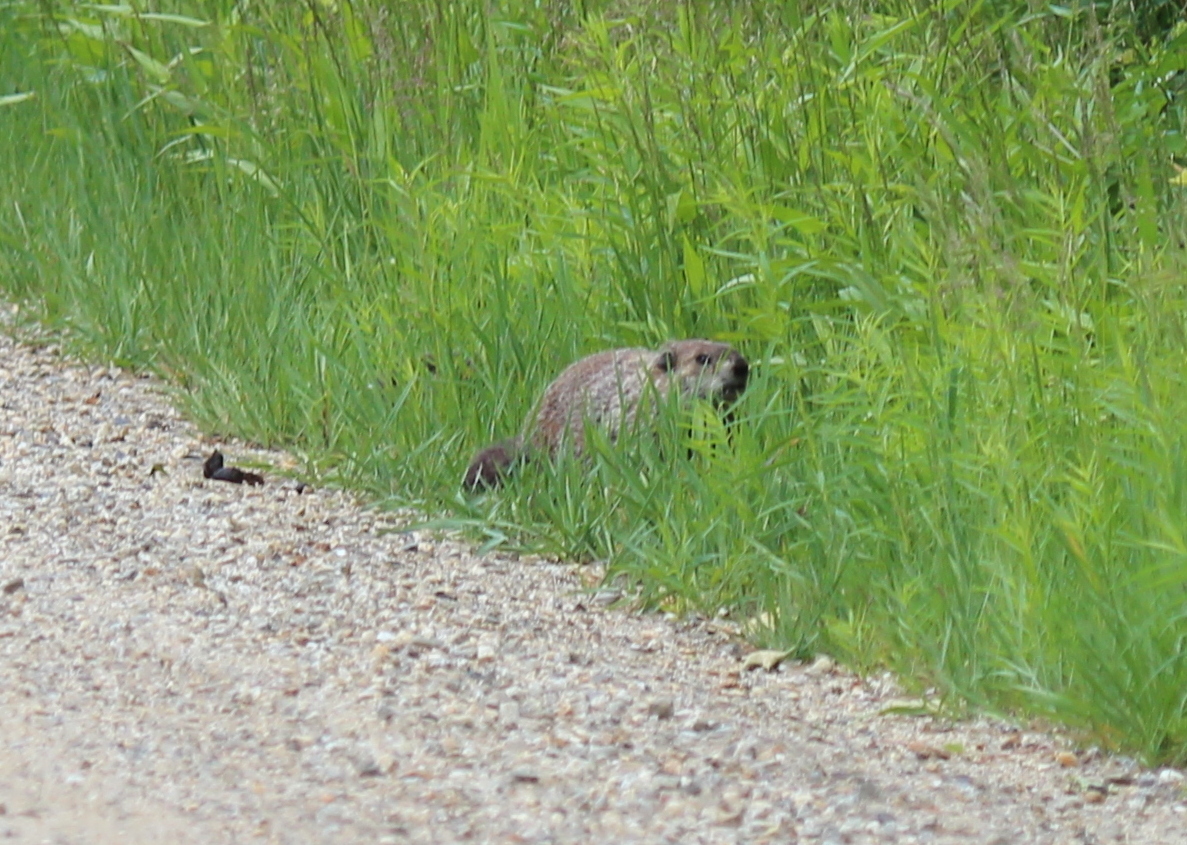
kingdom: Animalia
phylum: Chordata
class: Mammalia
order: Rodentia
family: Sciuridae
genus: Marmota
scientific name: Marmota monax
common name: Groundhog
